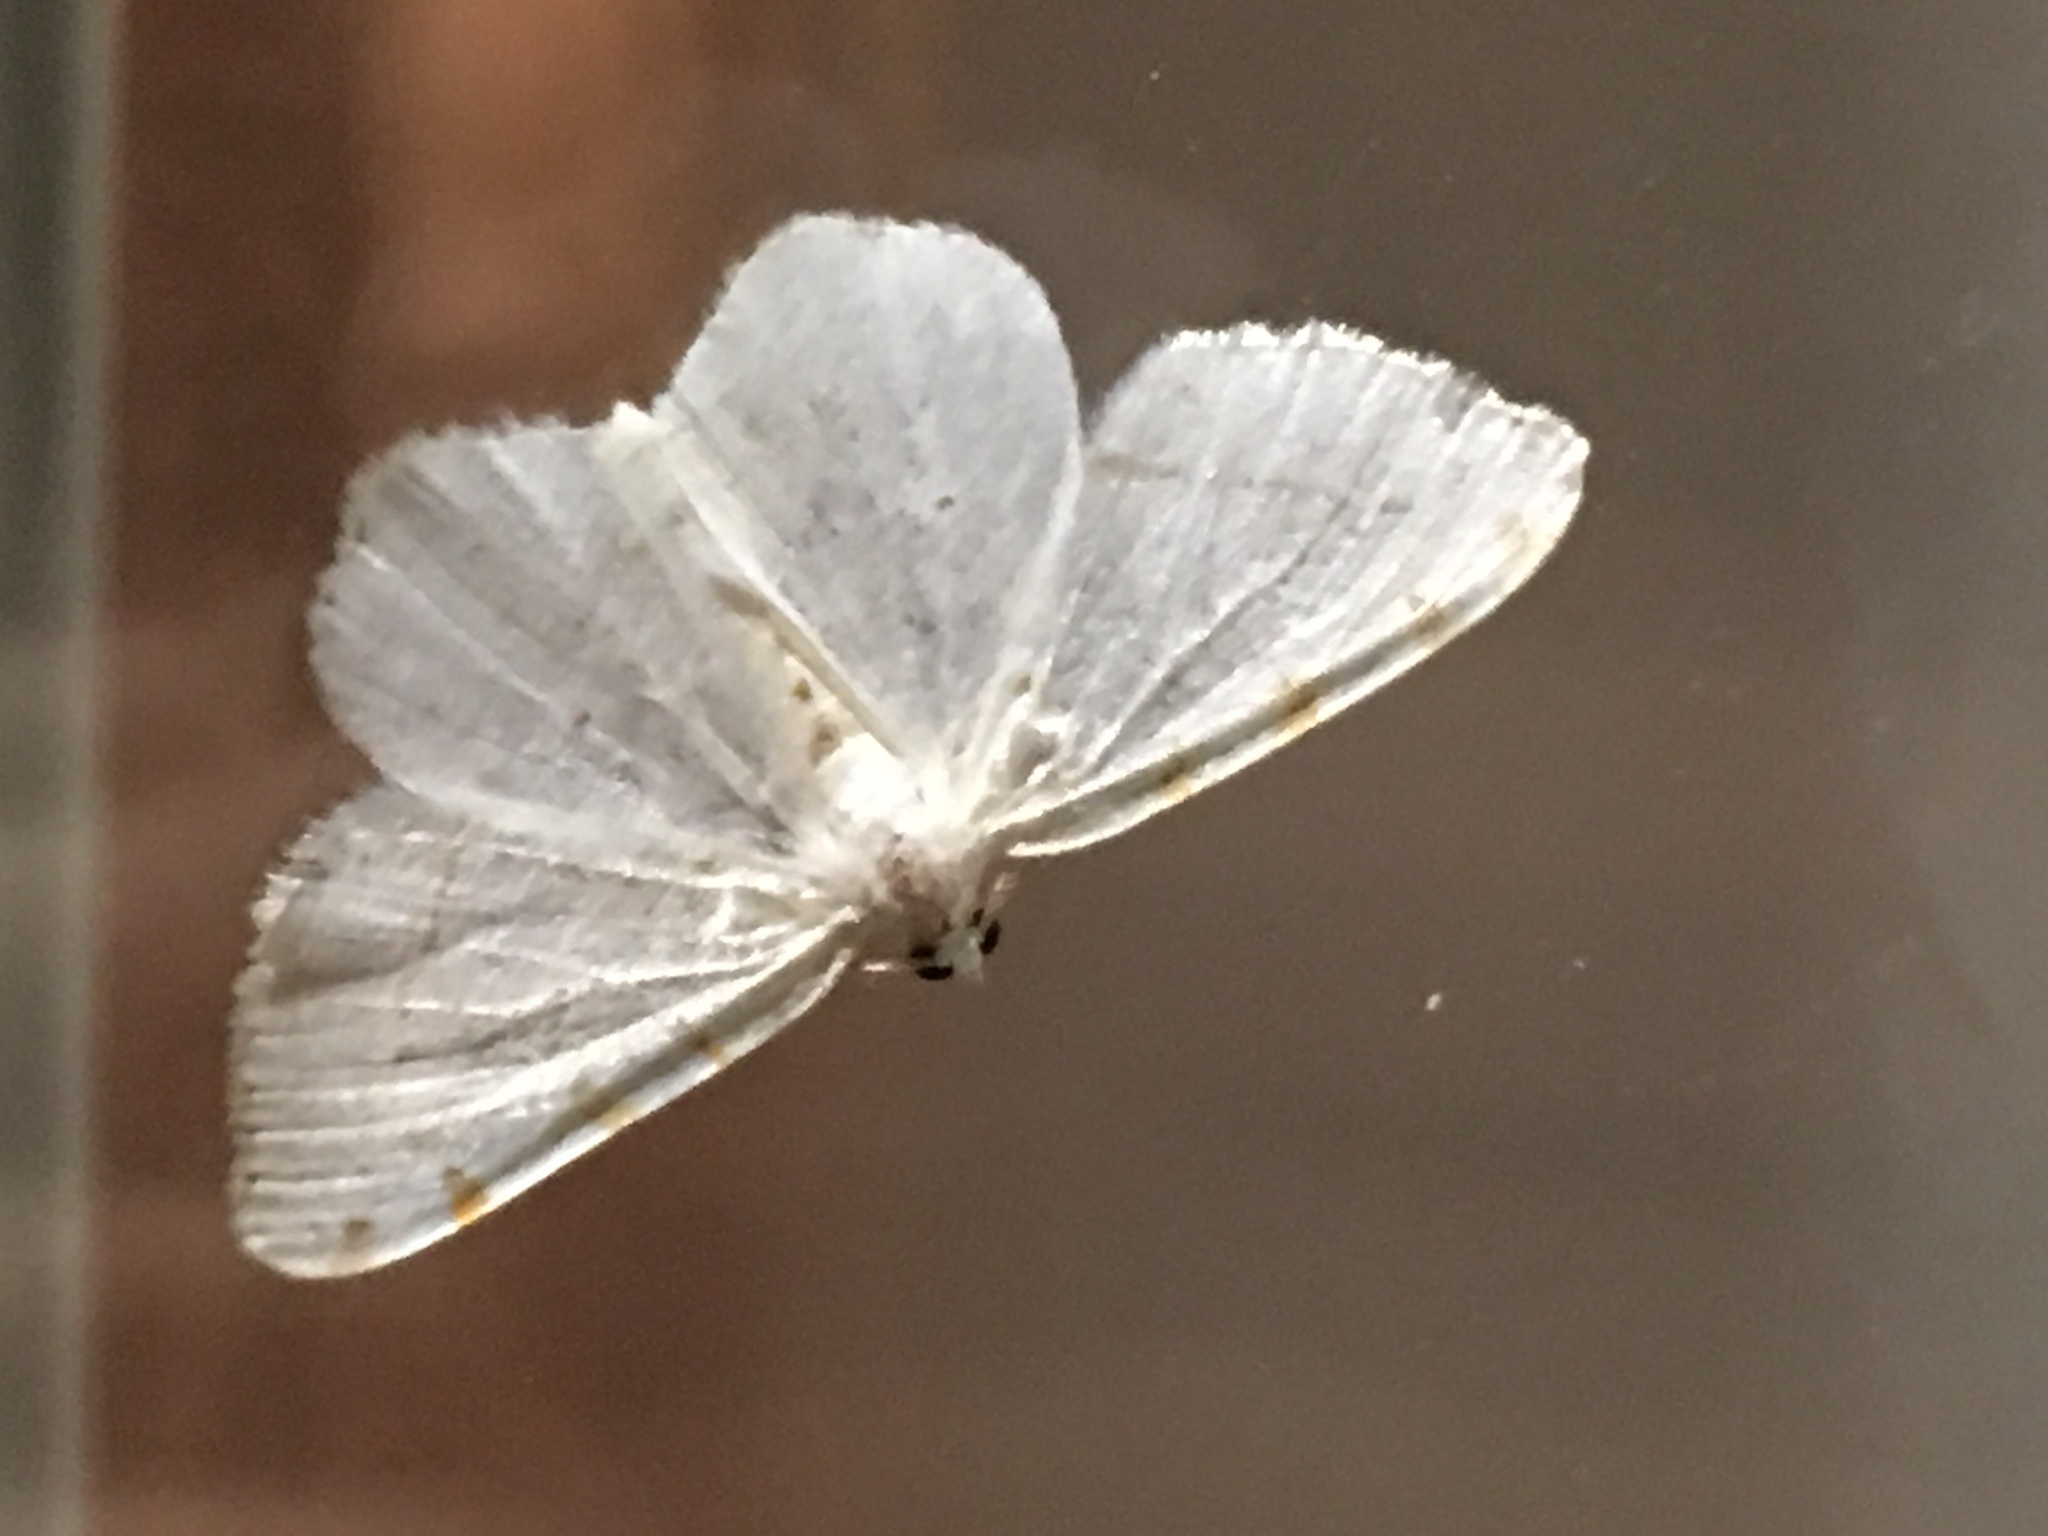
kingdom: Animalia
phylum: Arthropoda
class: Insecta
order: Lepidoptera
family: Geometridae
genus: Macaria
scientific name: Macaria pustularia
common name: Lesser maple spanworm moth
